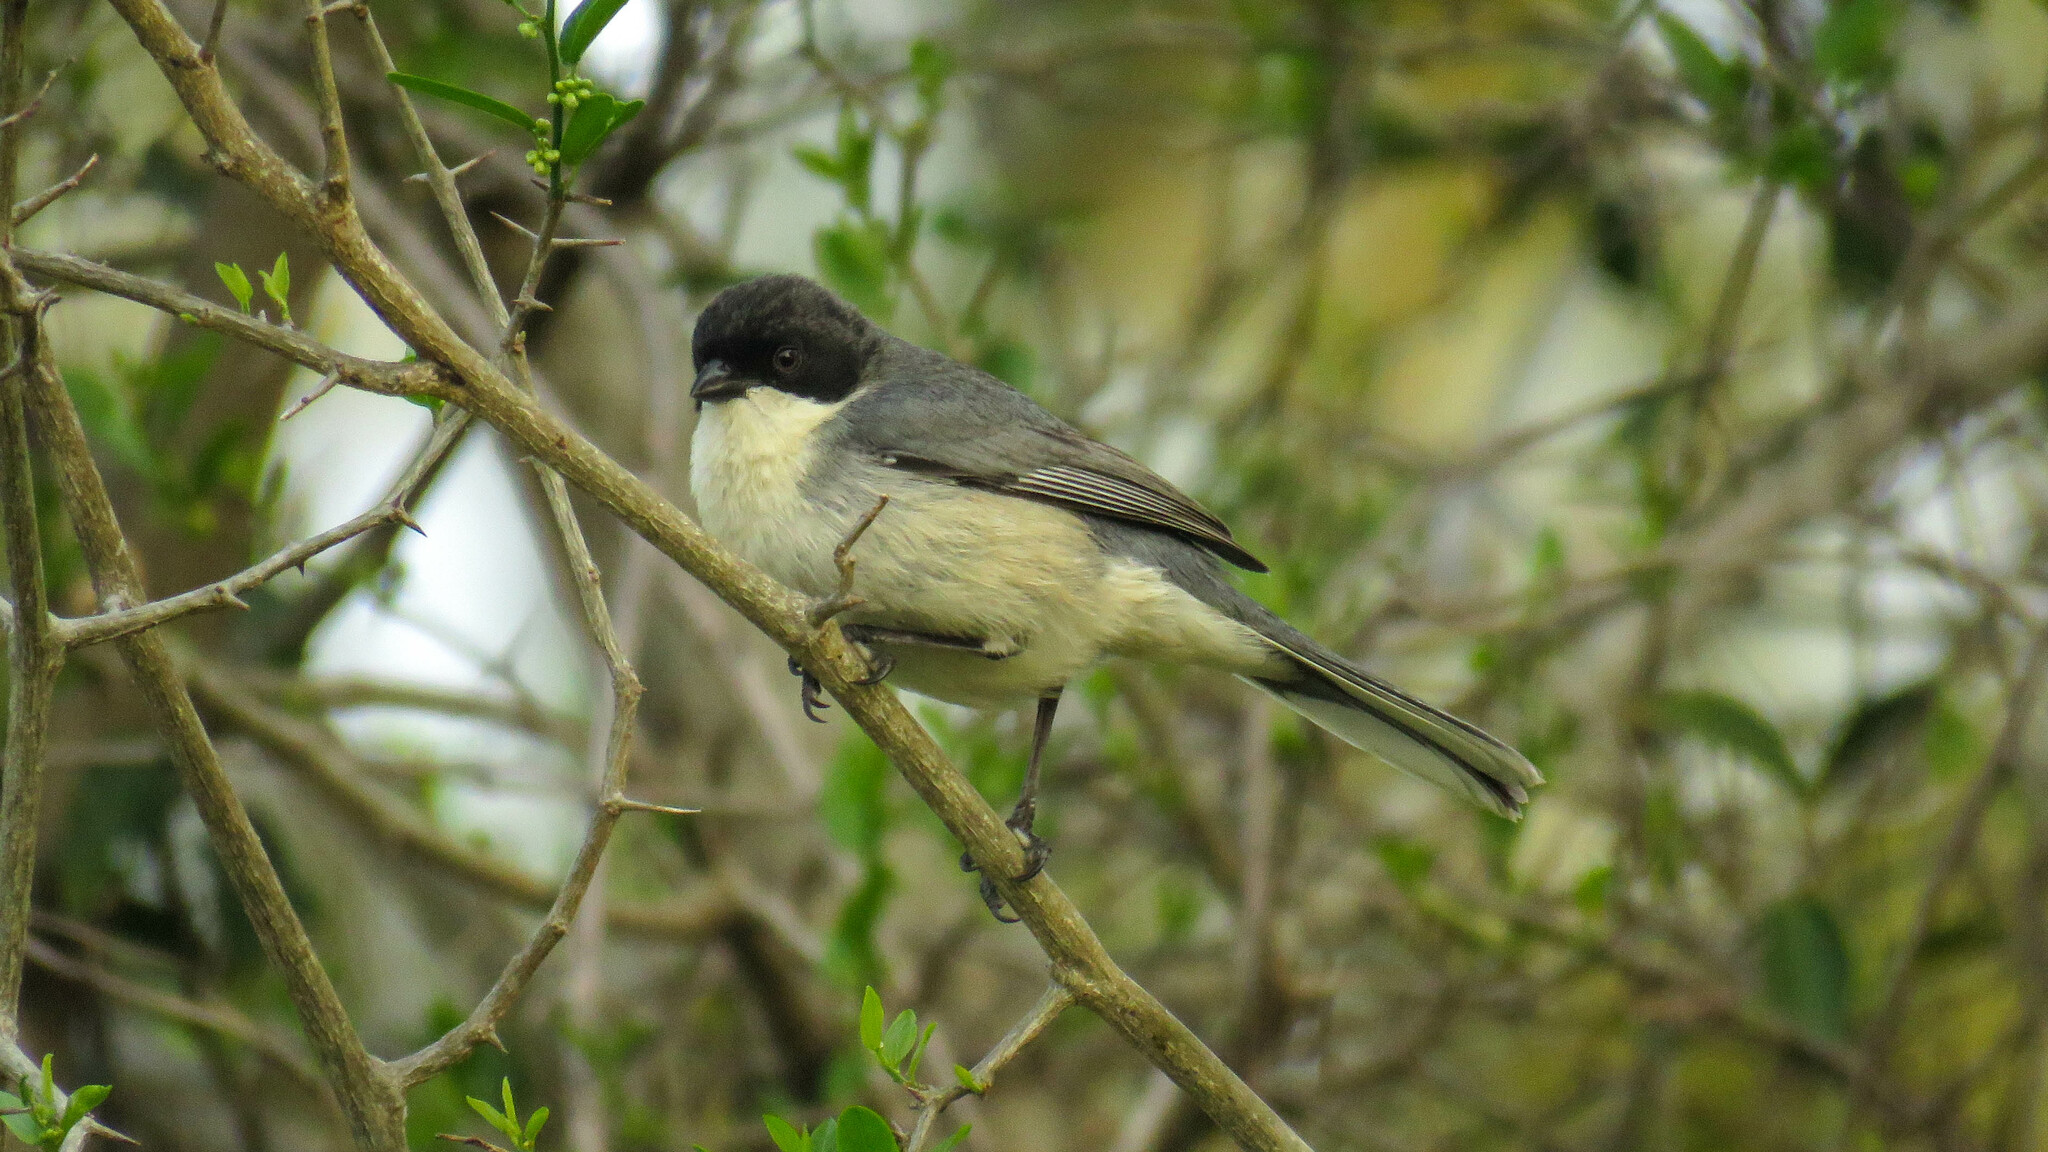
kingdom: Animalia
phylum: Chordata
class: Aves
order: Passeriformes
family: Thraupidae
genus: Microspingus
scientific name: Microspingus melanoleucus
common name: Black-capped warbling-finch
